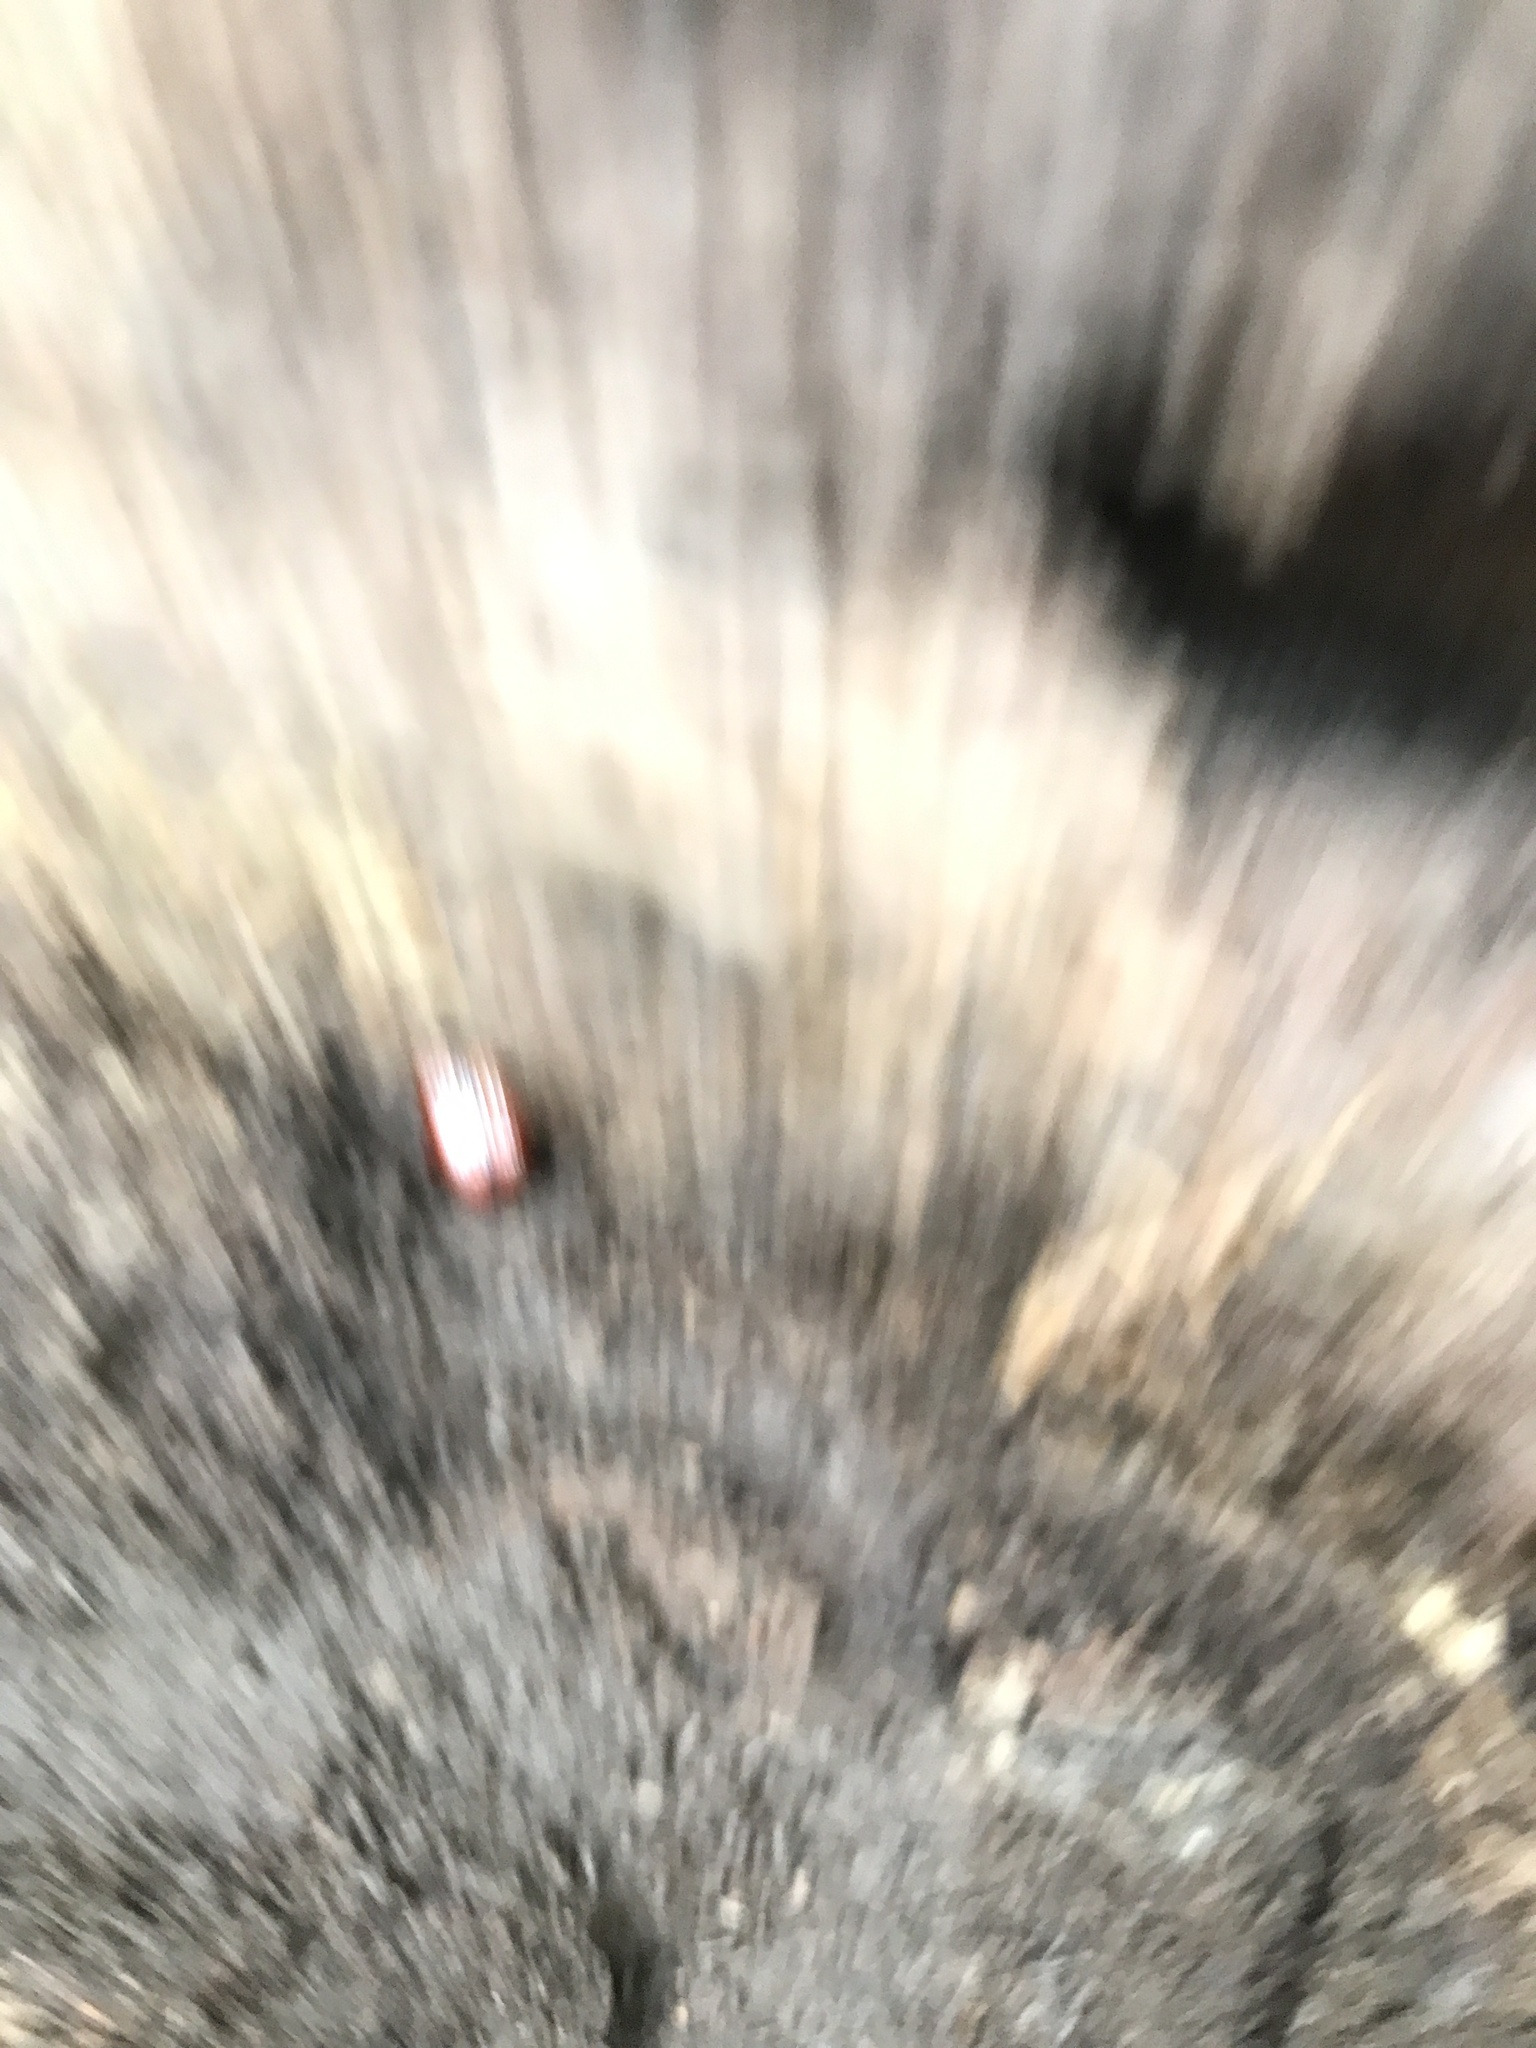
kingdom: Animalia
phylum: Arthropoda
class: Insecta
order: Coleoptera
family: Passalidae
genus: Odontotaenius
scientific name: Odontotaenius disjunctus
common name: Patent leather beetle
